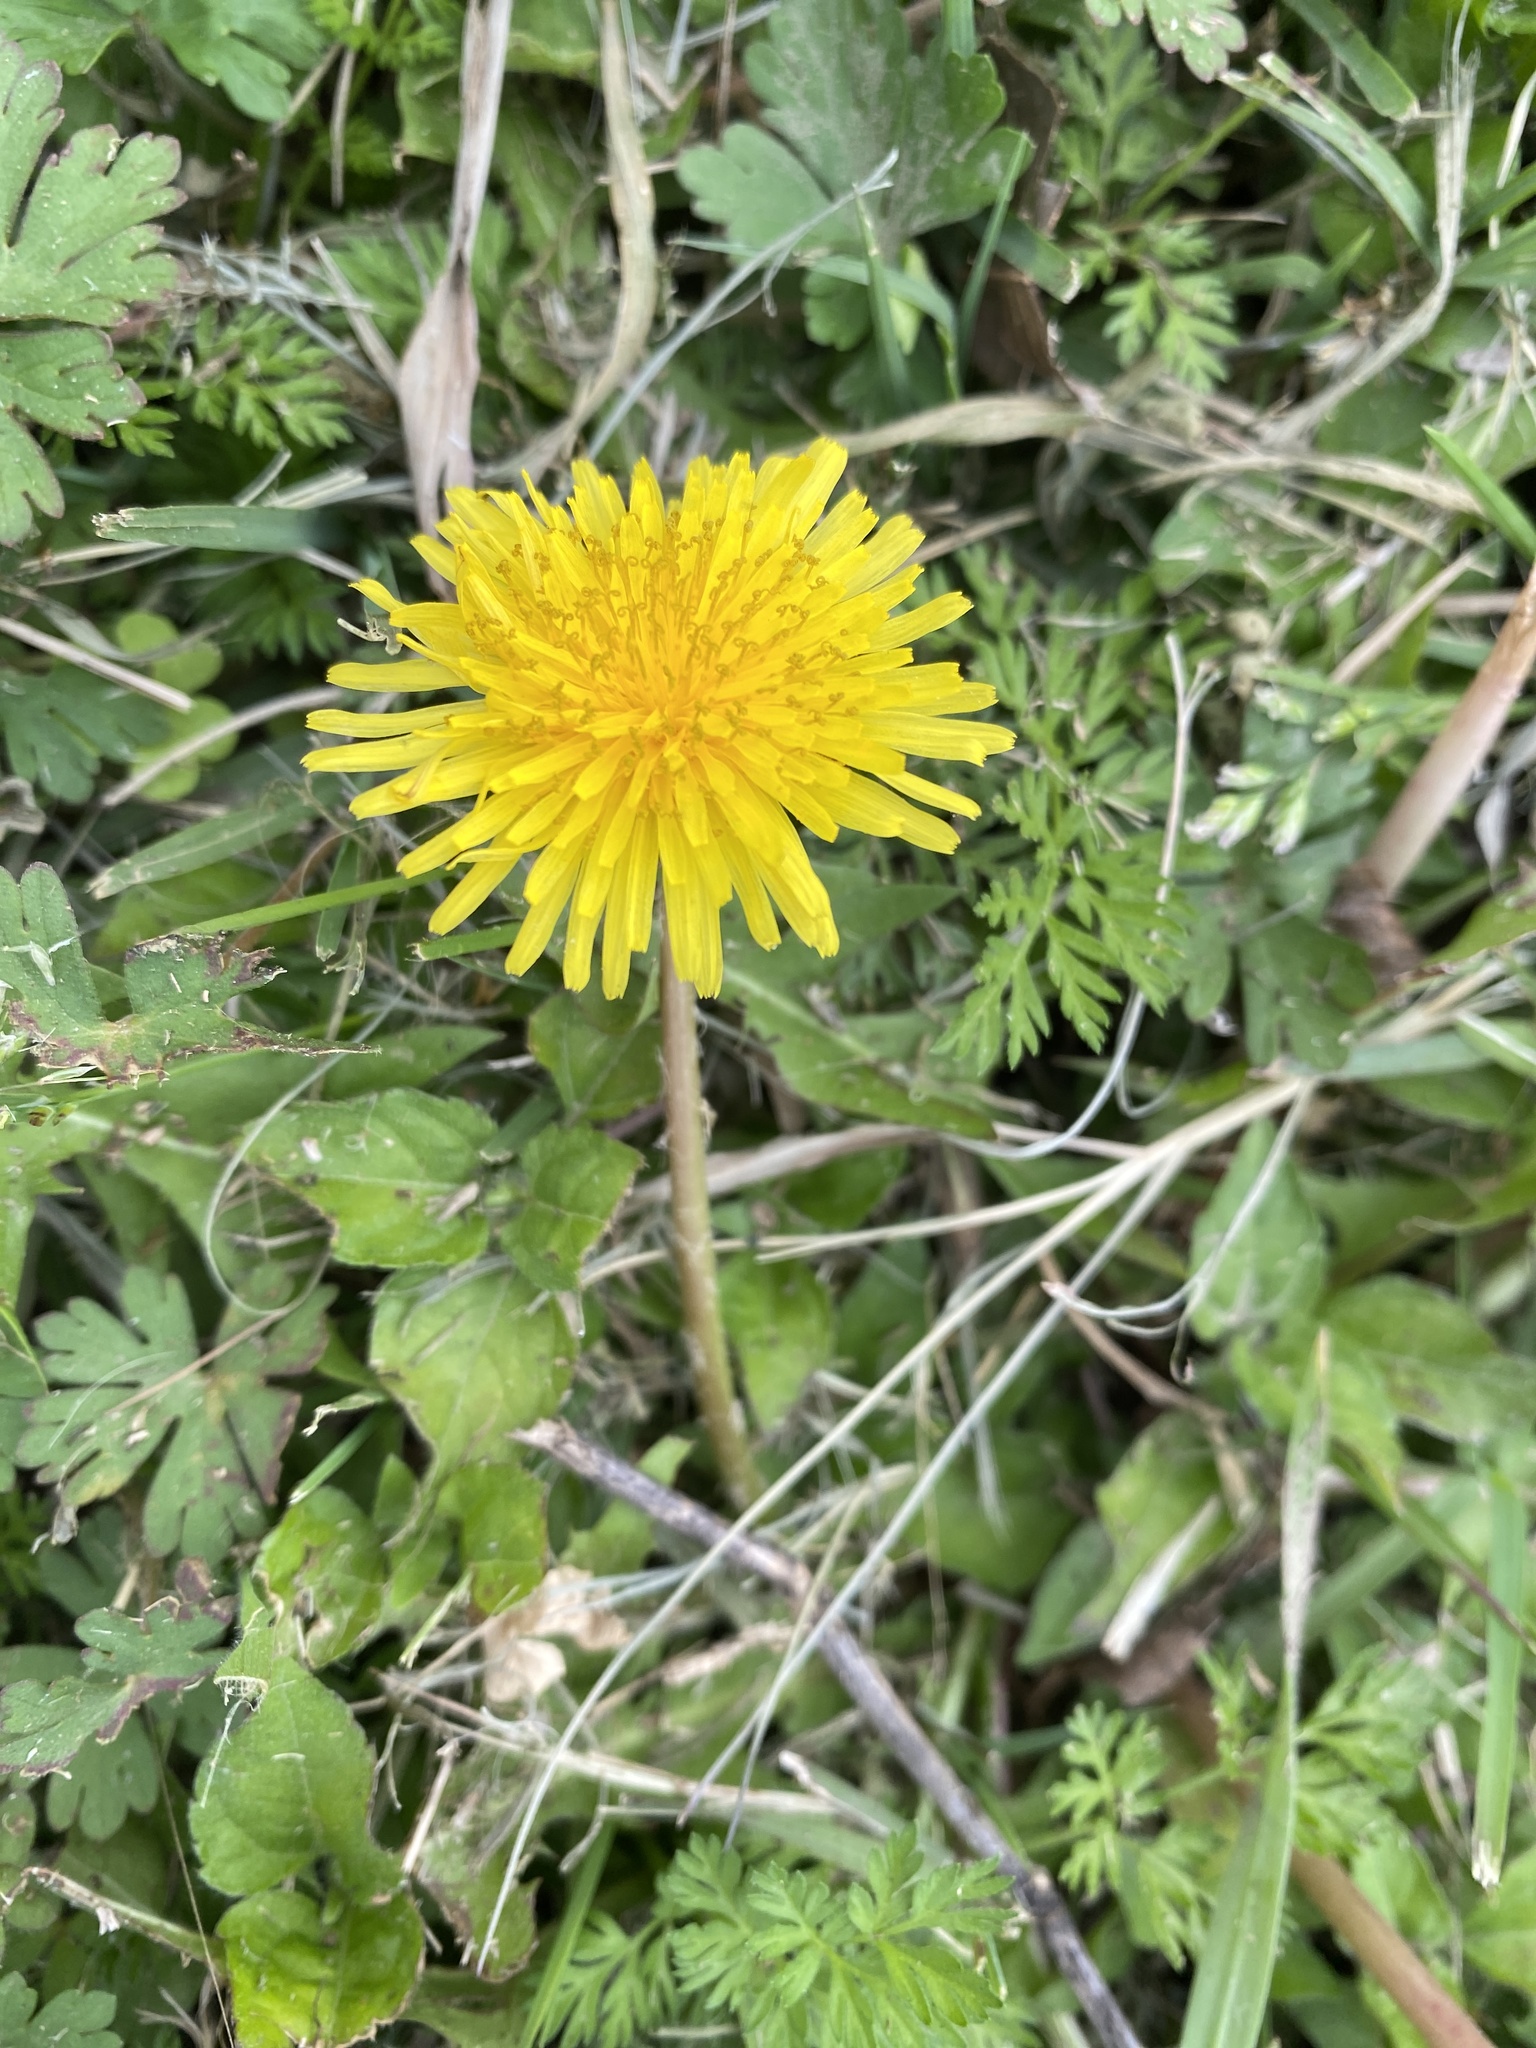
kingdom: Plantae
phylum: Tracheophyta
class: Magnoliopsida
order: Asterales
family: Asteraceae
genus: Taraxacum
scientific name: Taraxacum officinale
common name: Common dandelion
